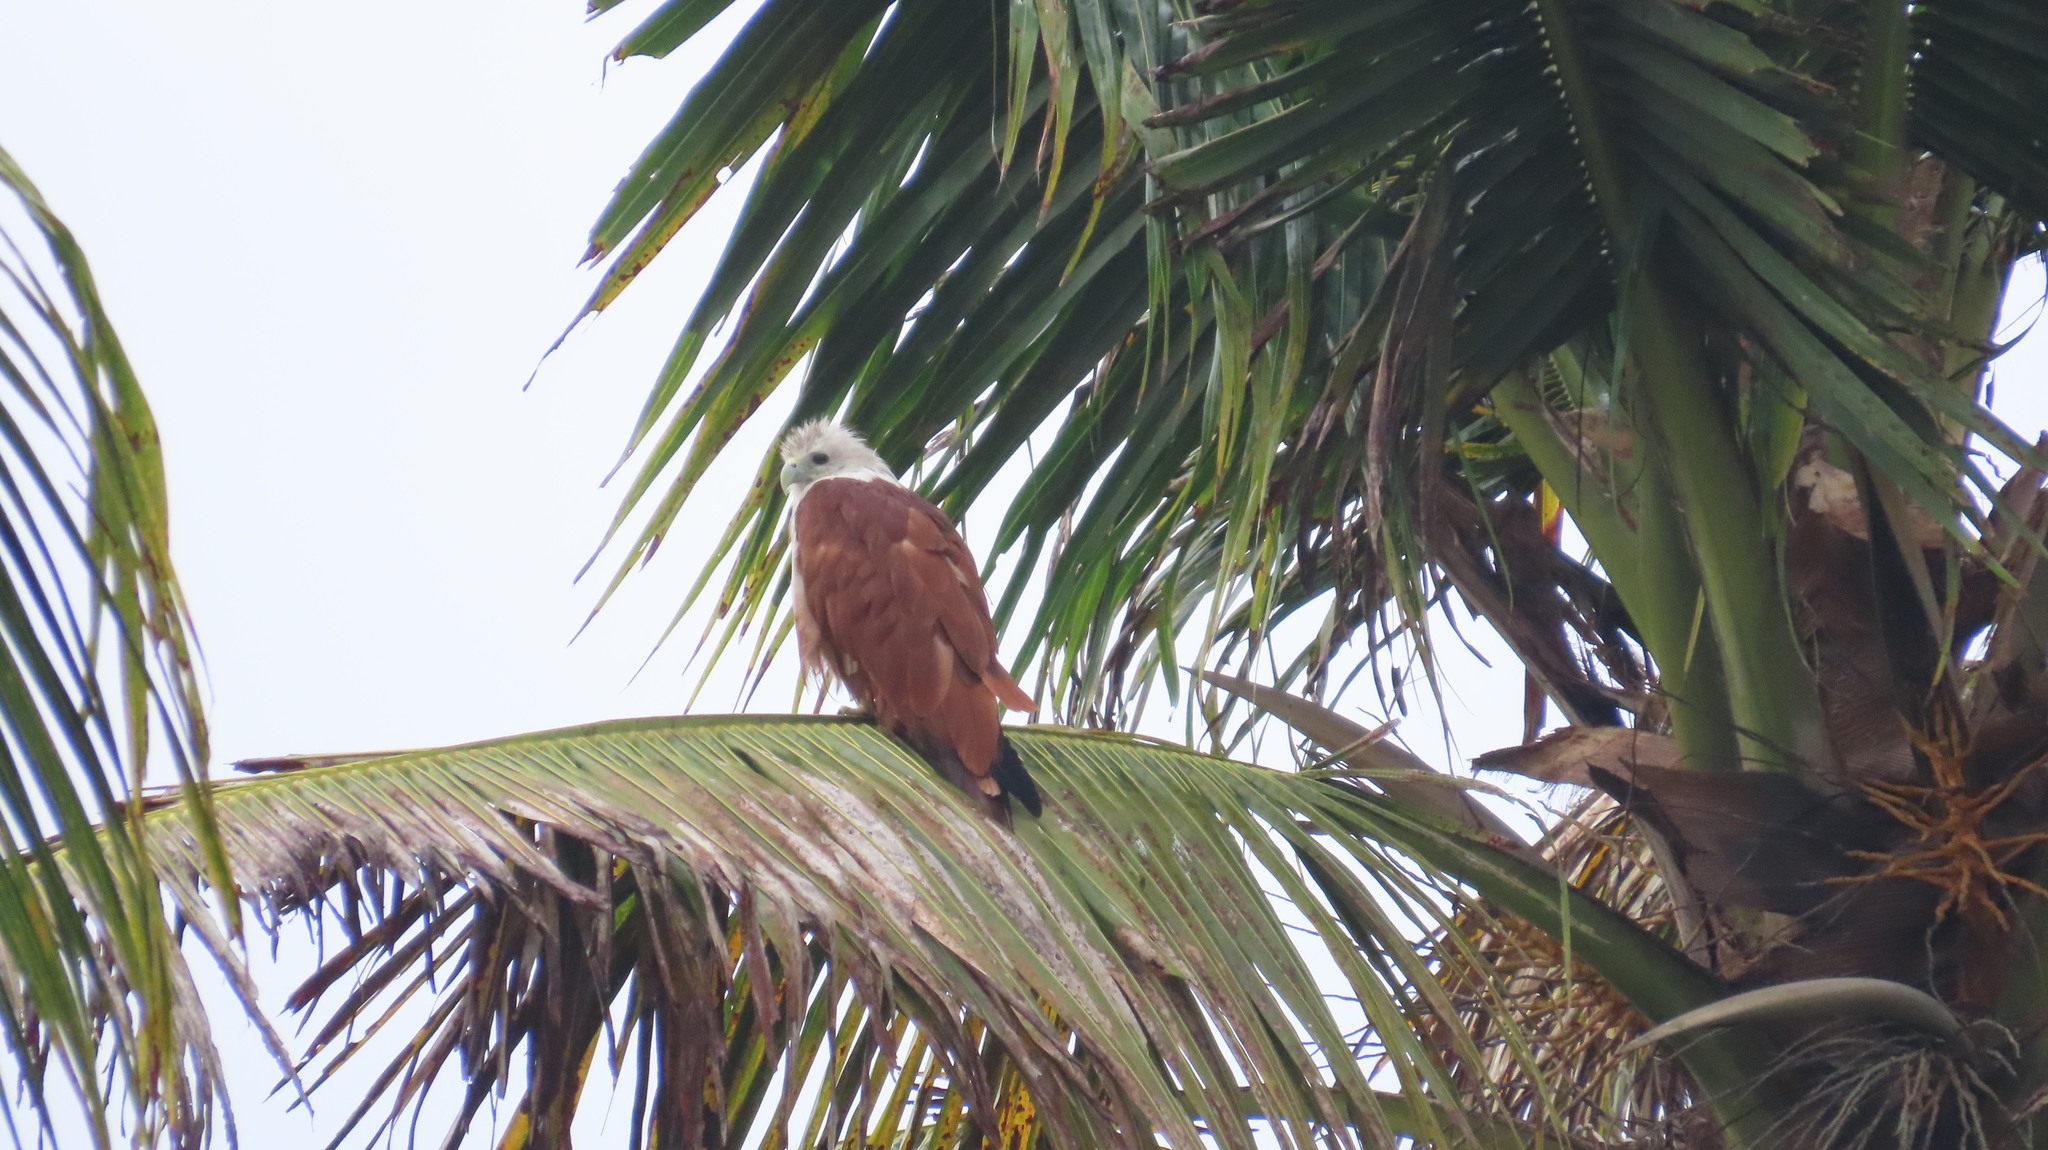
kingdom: Animalia
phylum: Chordata
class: Aves
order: Accipitriformes
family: Accipitridae
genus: Haliastur
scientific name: Haliastur indus
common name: Brahminy kite
